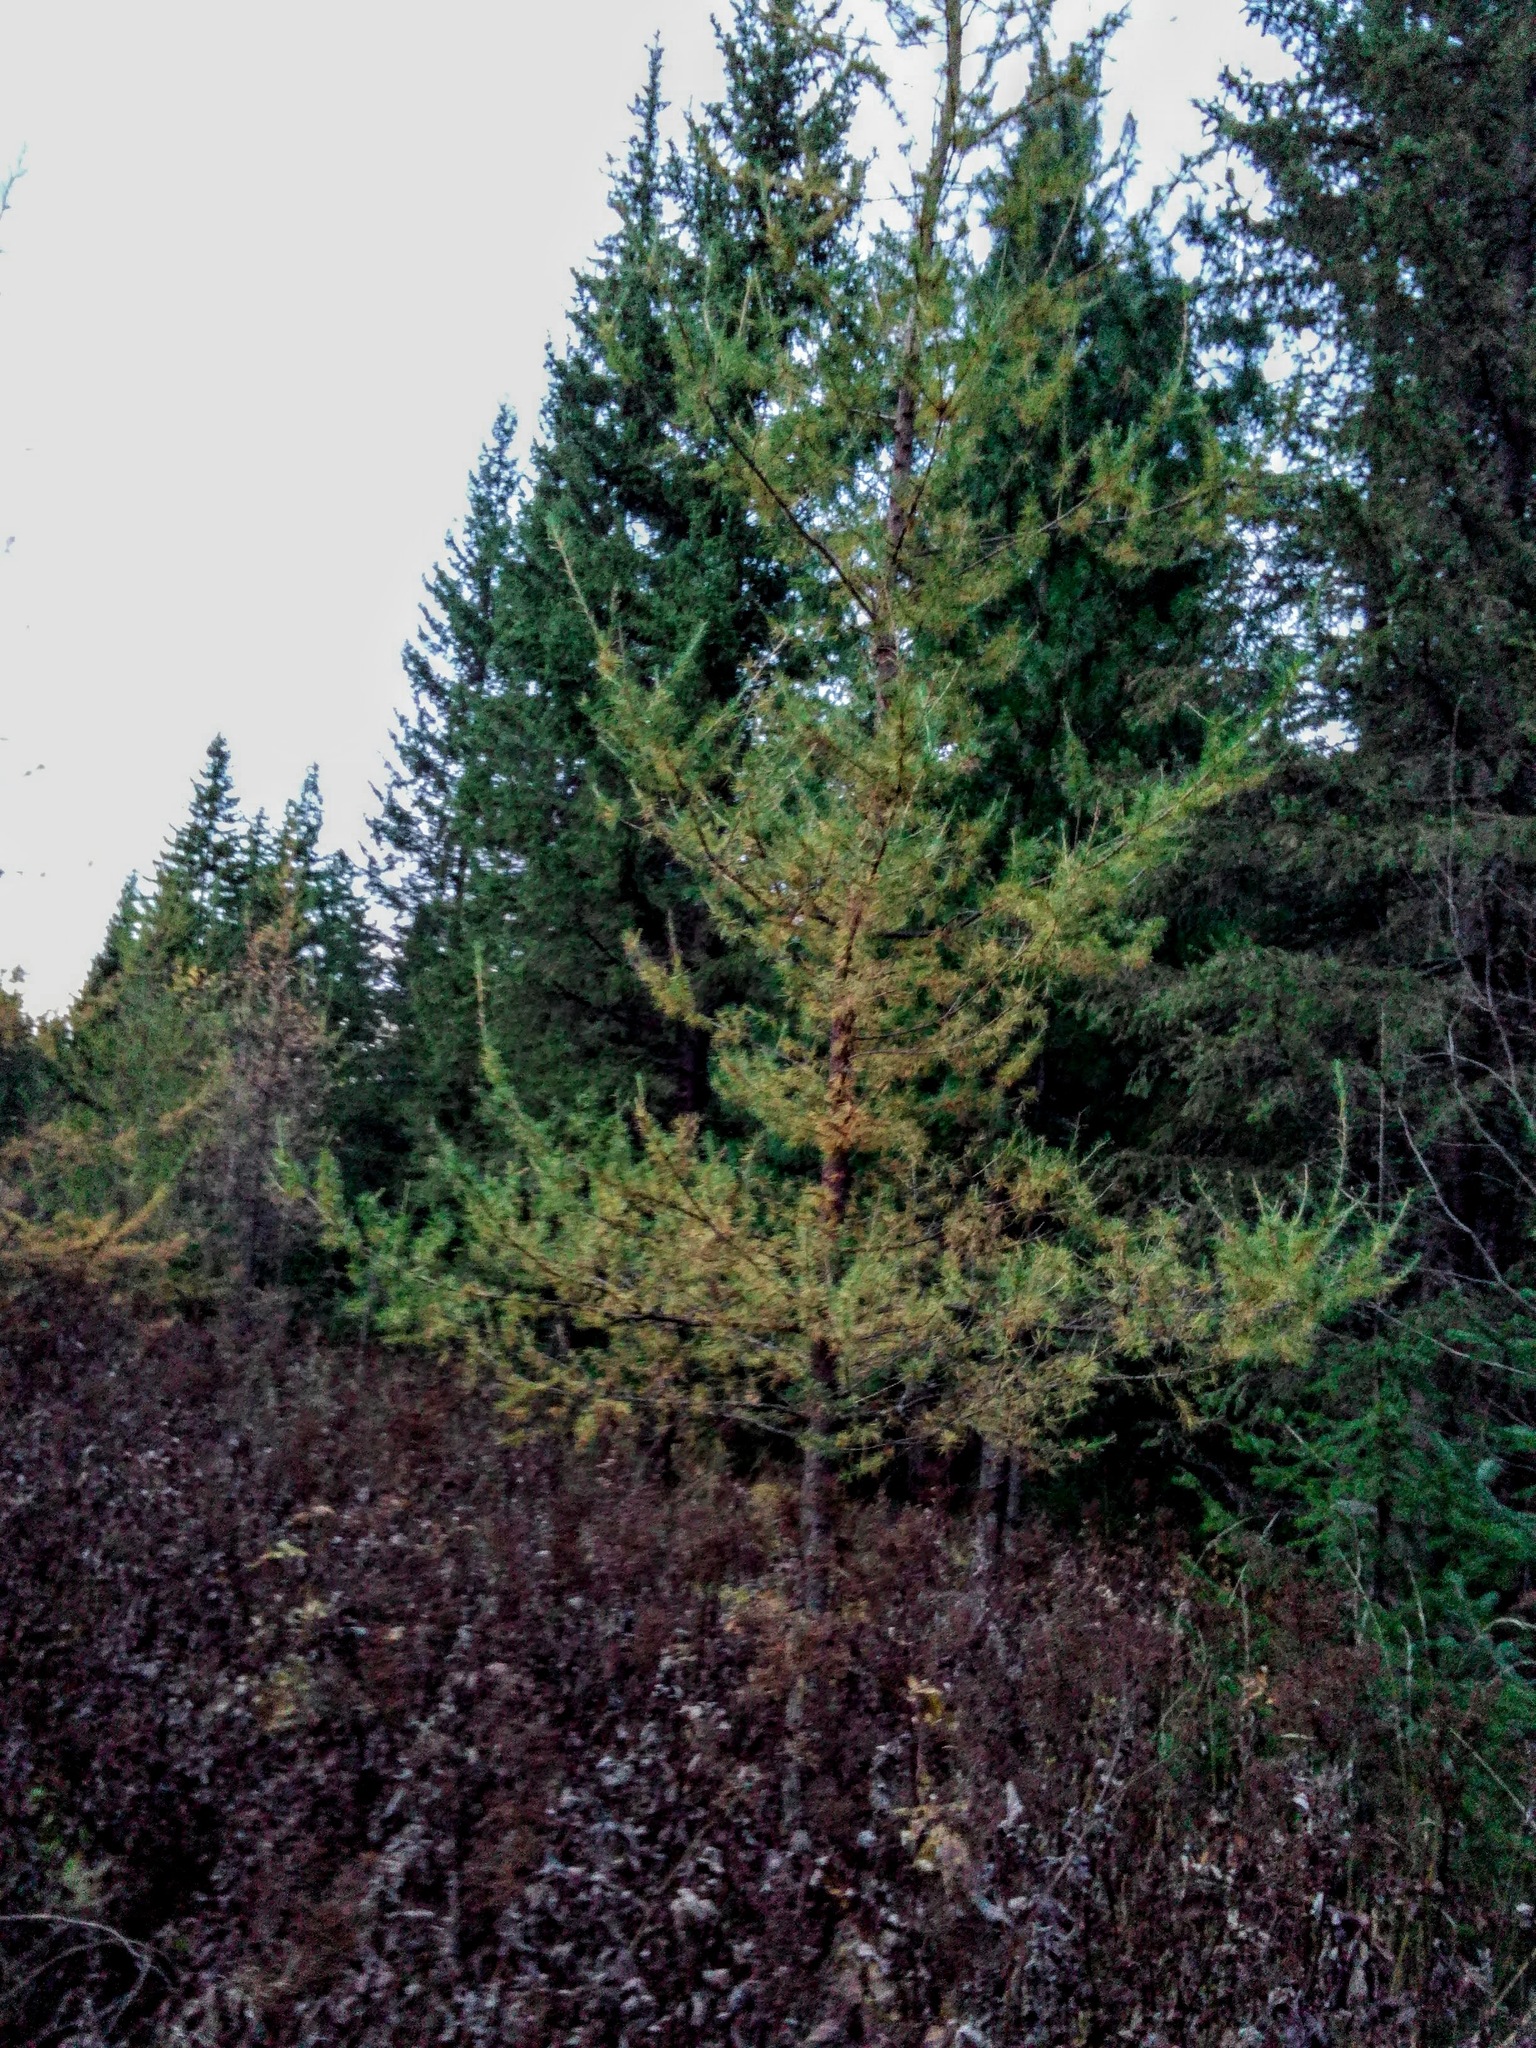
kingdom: Plantae
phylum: Tracheophyta
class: Pinopsida
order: Pinales
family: Pinaceae
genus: Larix
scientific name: Larix sibirica
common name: Siberian larch
